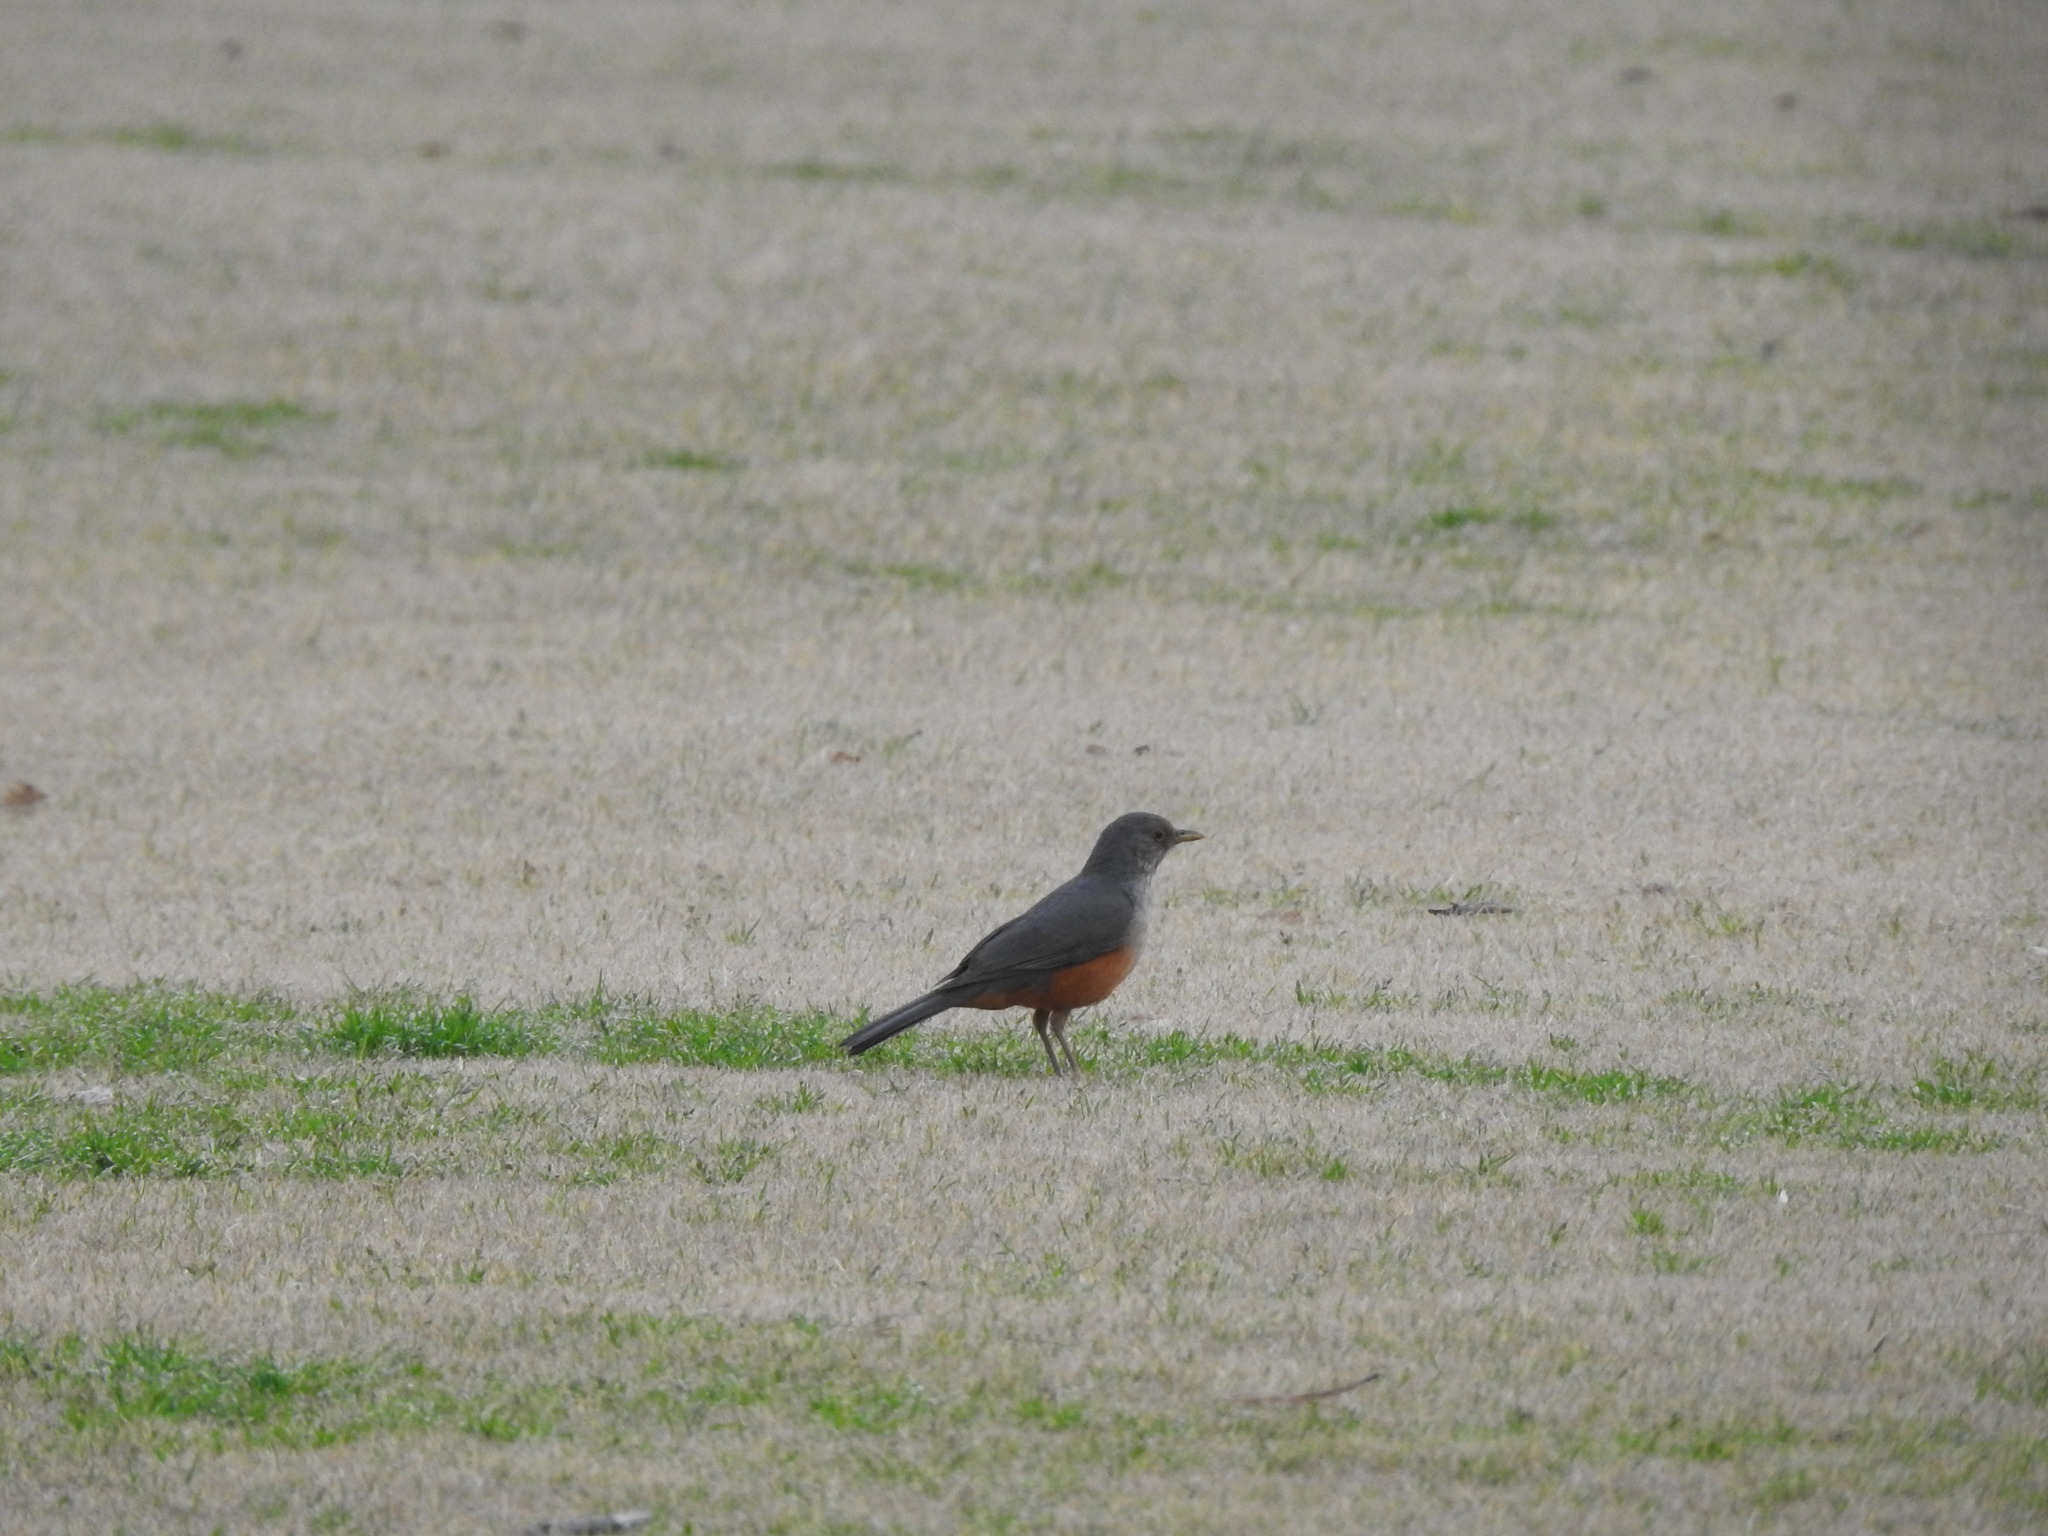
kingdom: Animalia
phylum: Chordata
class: Aves
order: Passeriformes
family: Turdidae
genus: Turdus
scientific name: Turdus rufiventris
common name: Rufous-bellied thrush
